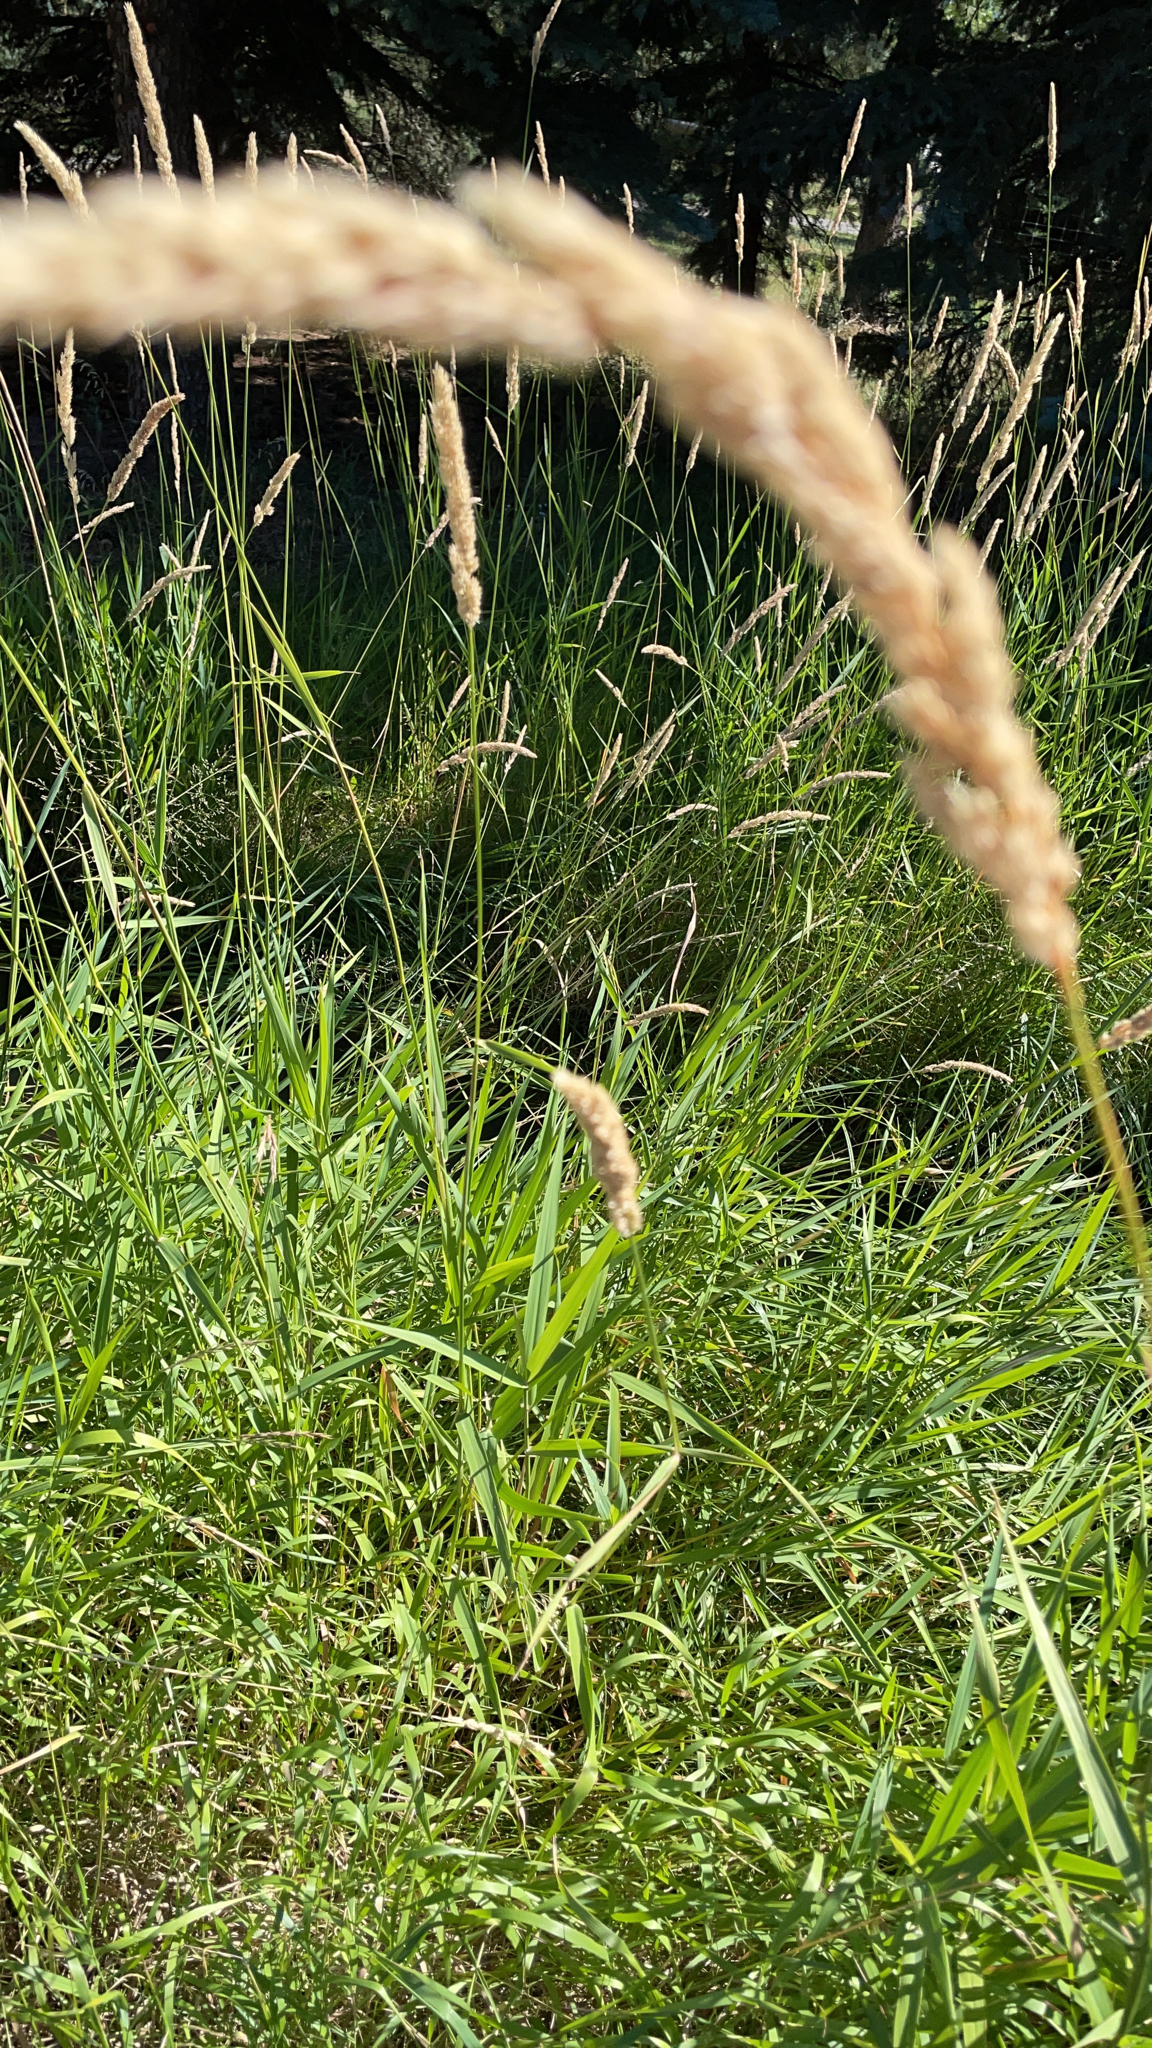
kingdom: Plantae
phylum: Tracheophyta
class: Liliopsida
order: Poales
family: Poaceae
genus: Phalaris
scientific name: Phalaris arundinacea
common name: Reed canary-grass
